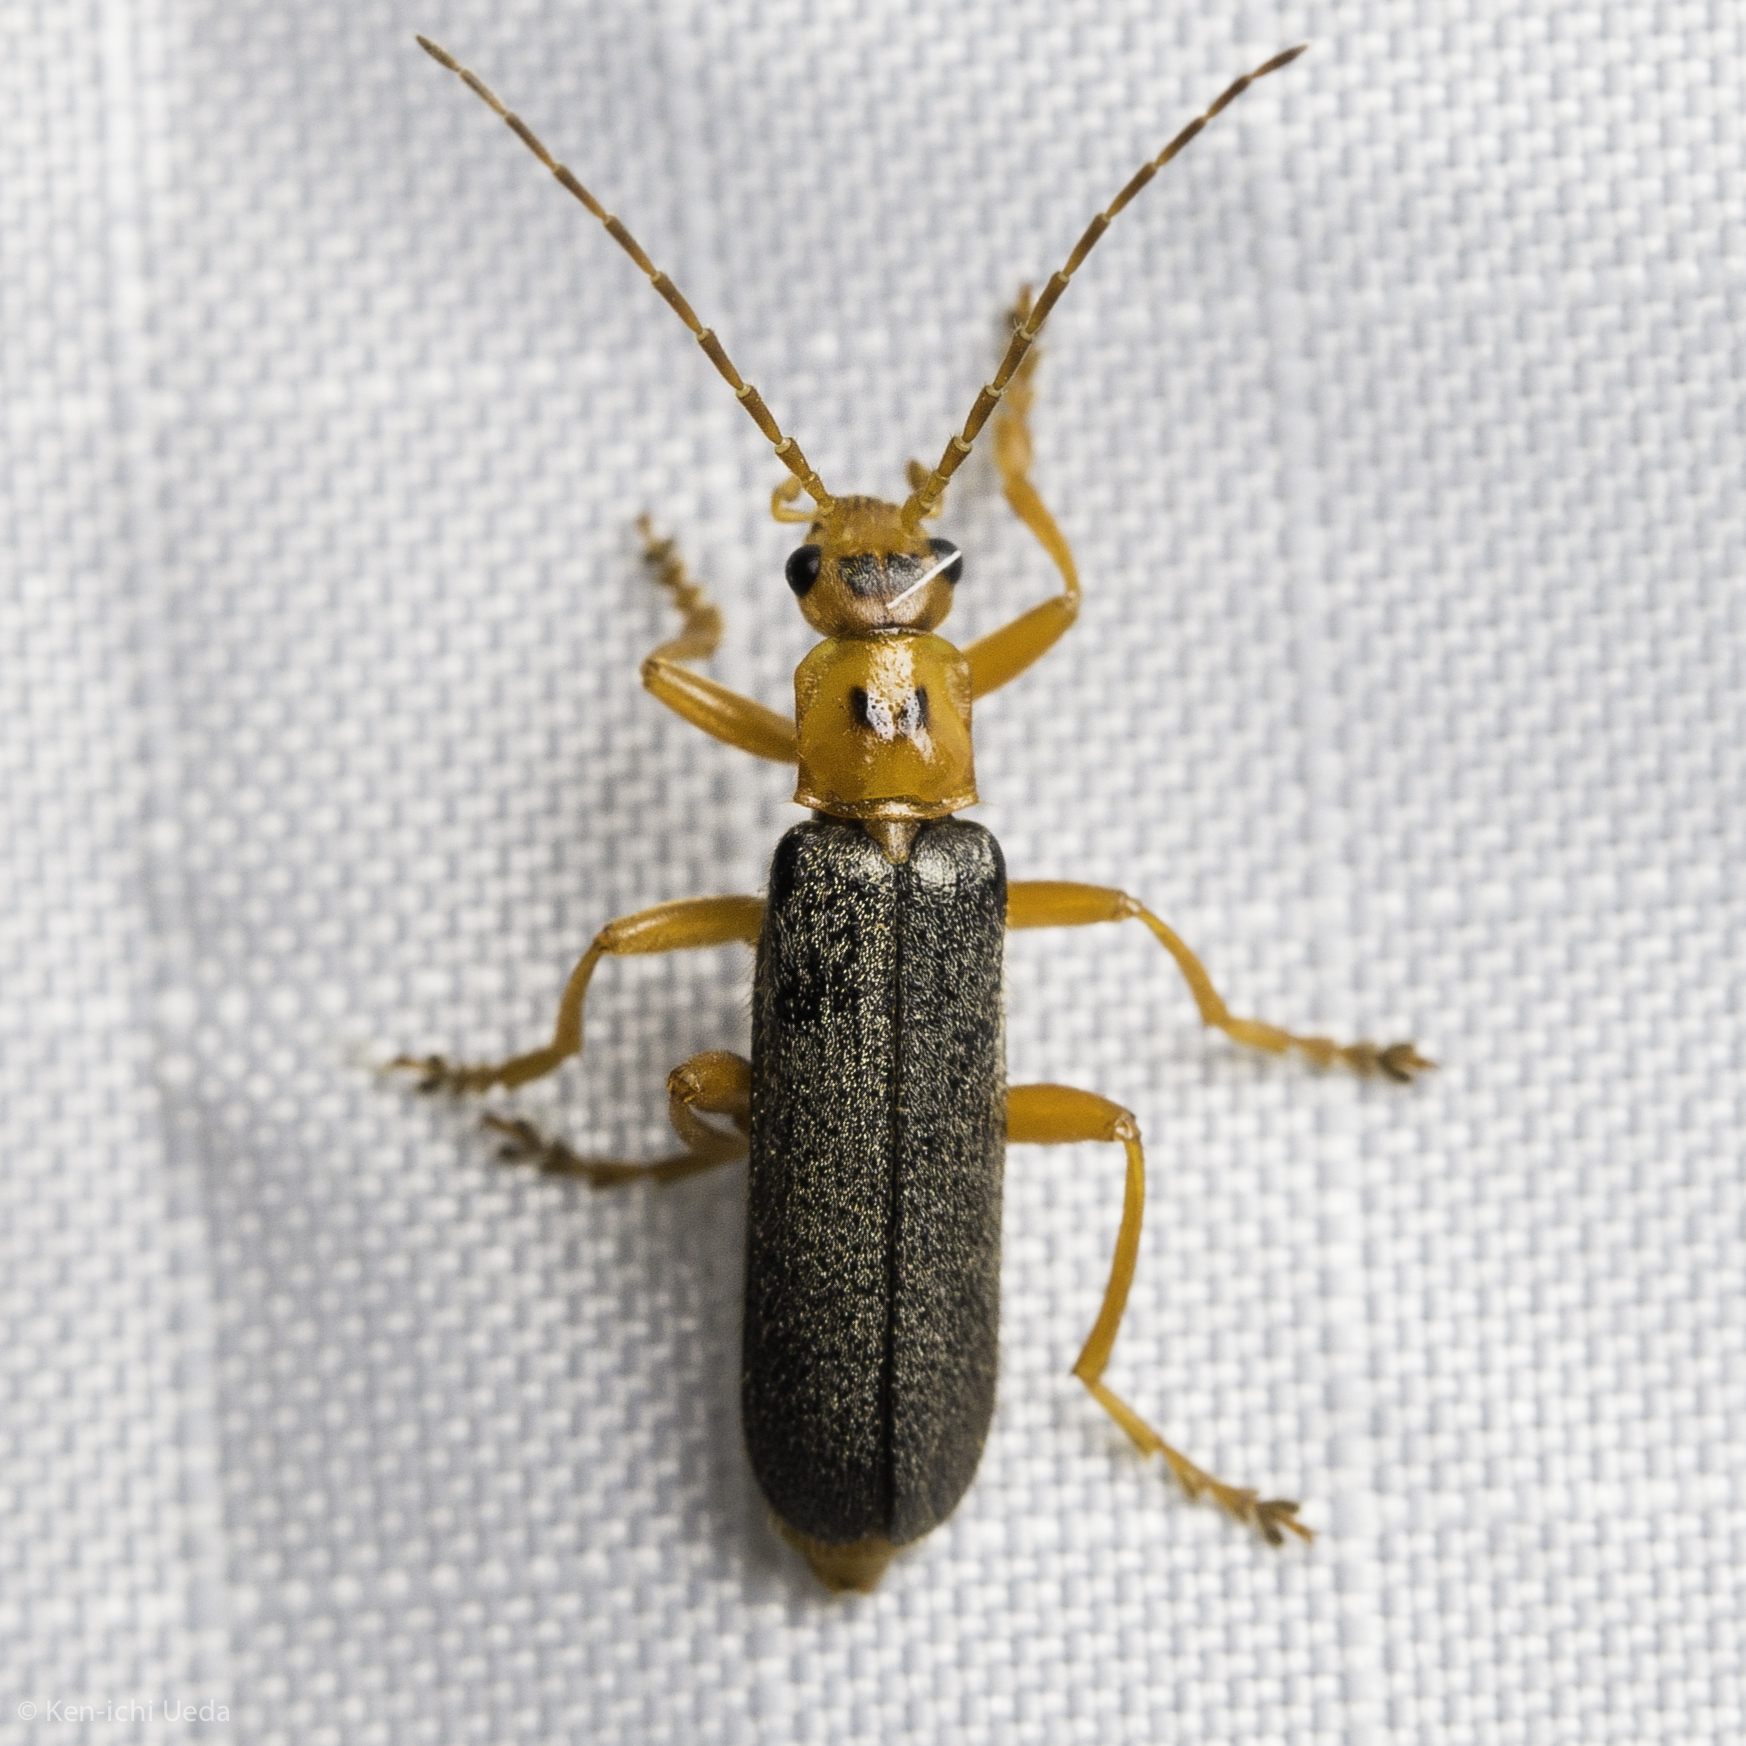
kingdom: Animalia
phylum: Arthropoda
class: Insecta
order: Coleoptera
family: Cantharidae
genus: Cultellunguis
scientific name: Cultellunguis americanus
